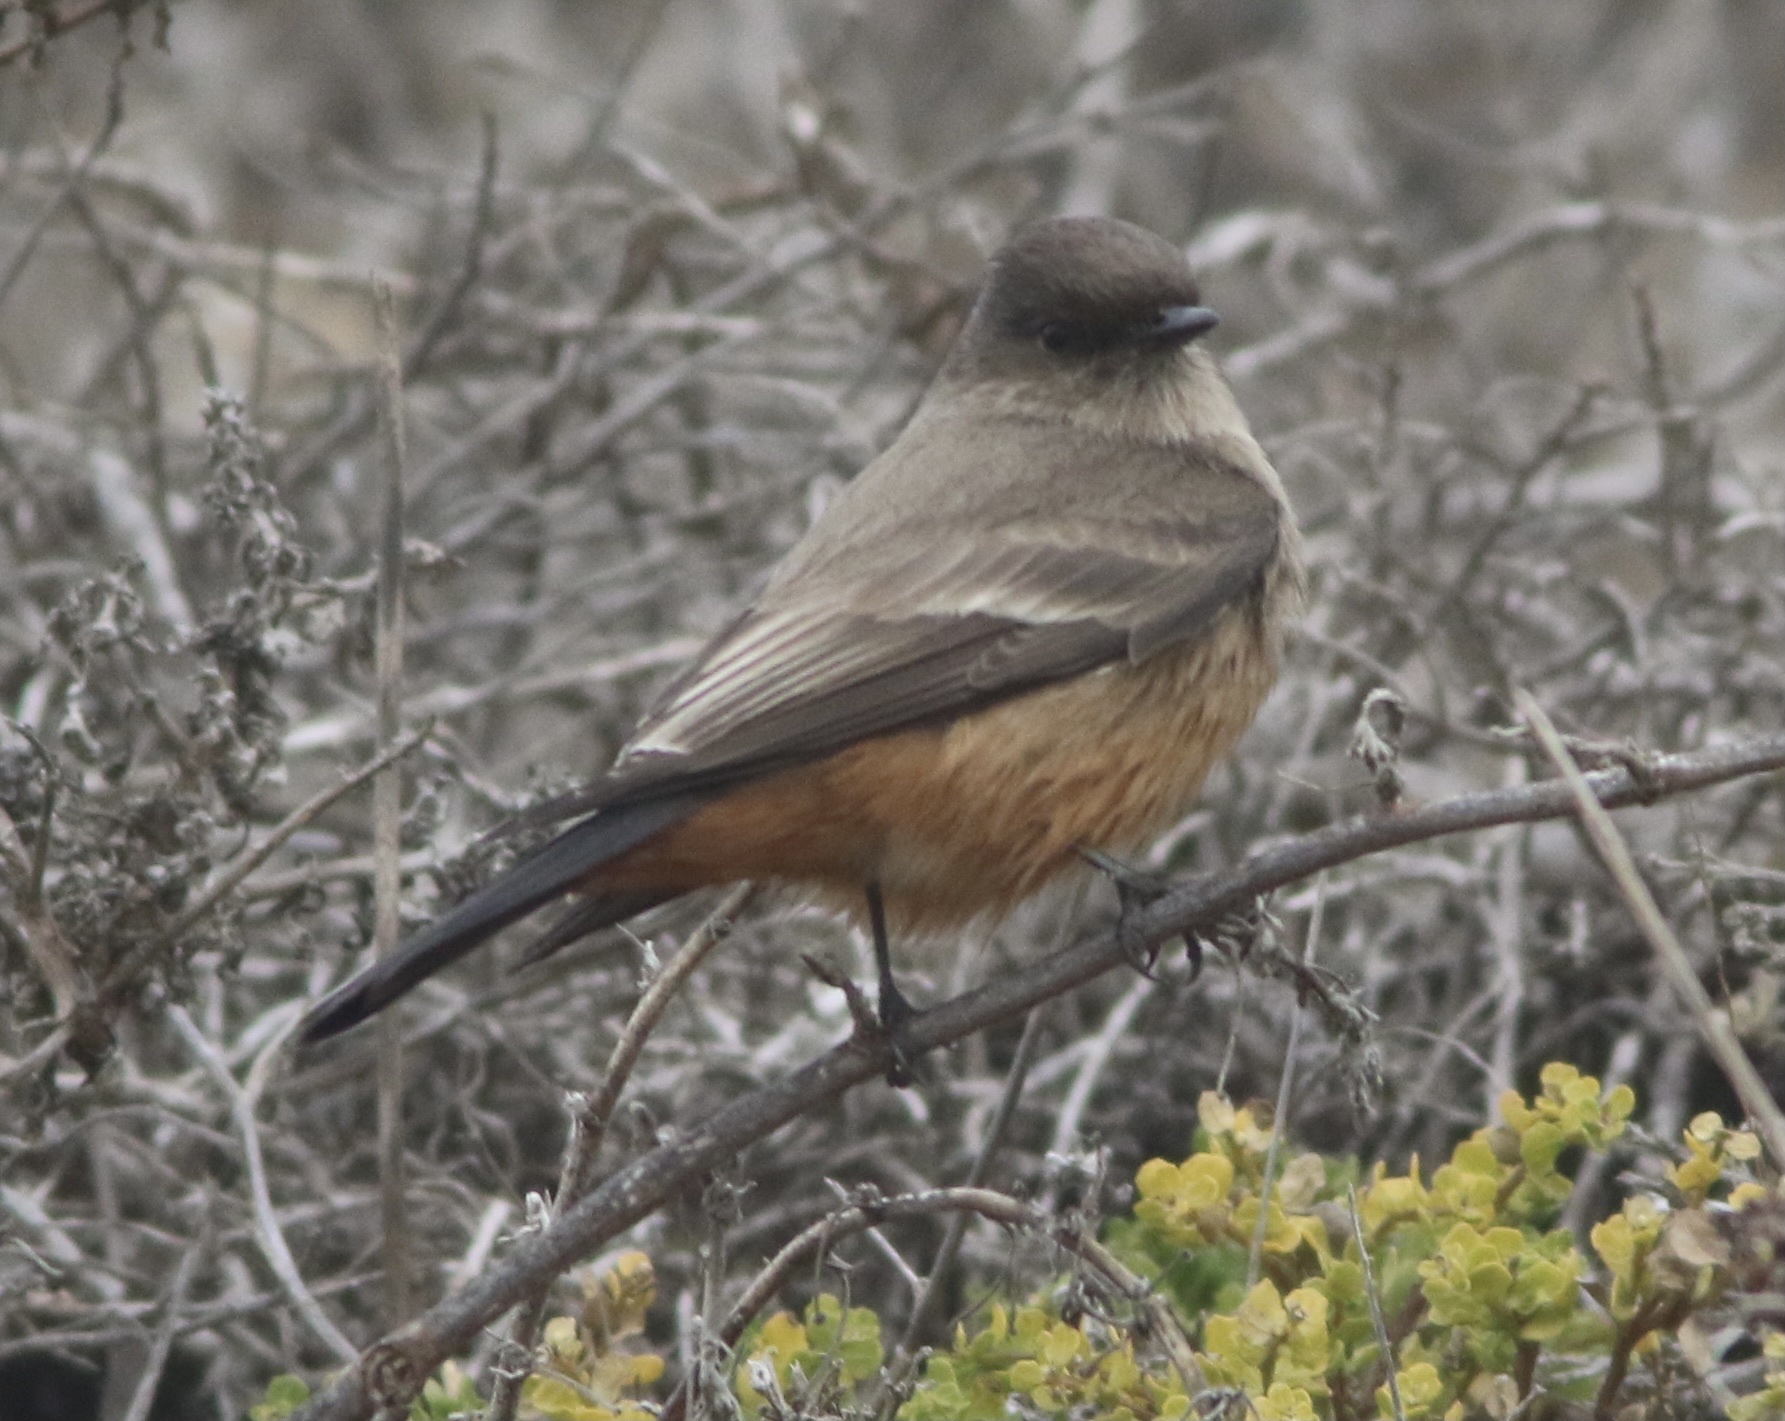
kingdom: Animalia
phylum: Chordata
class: Aves
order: Passeriformes
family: Tyrannidae
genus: Sayornis
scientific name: Sayornis saya
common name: Say's phoebe
